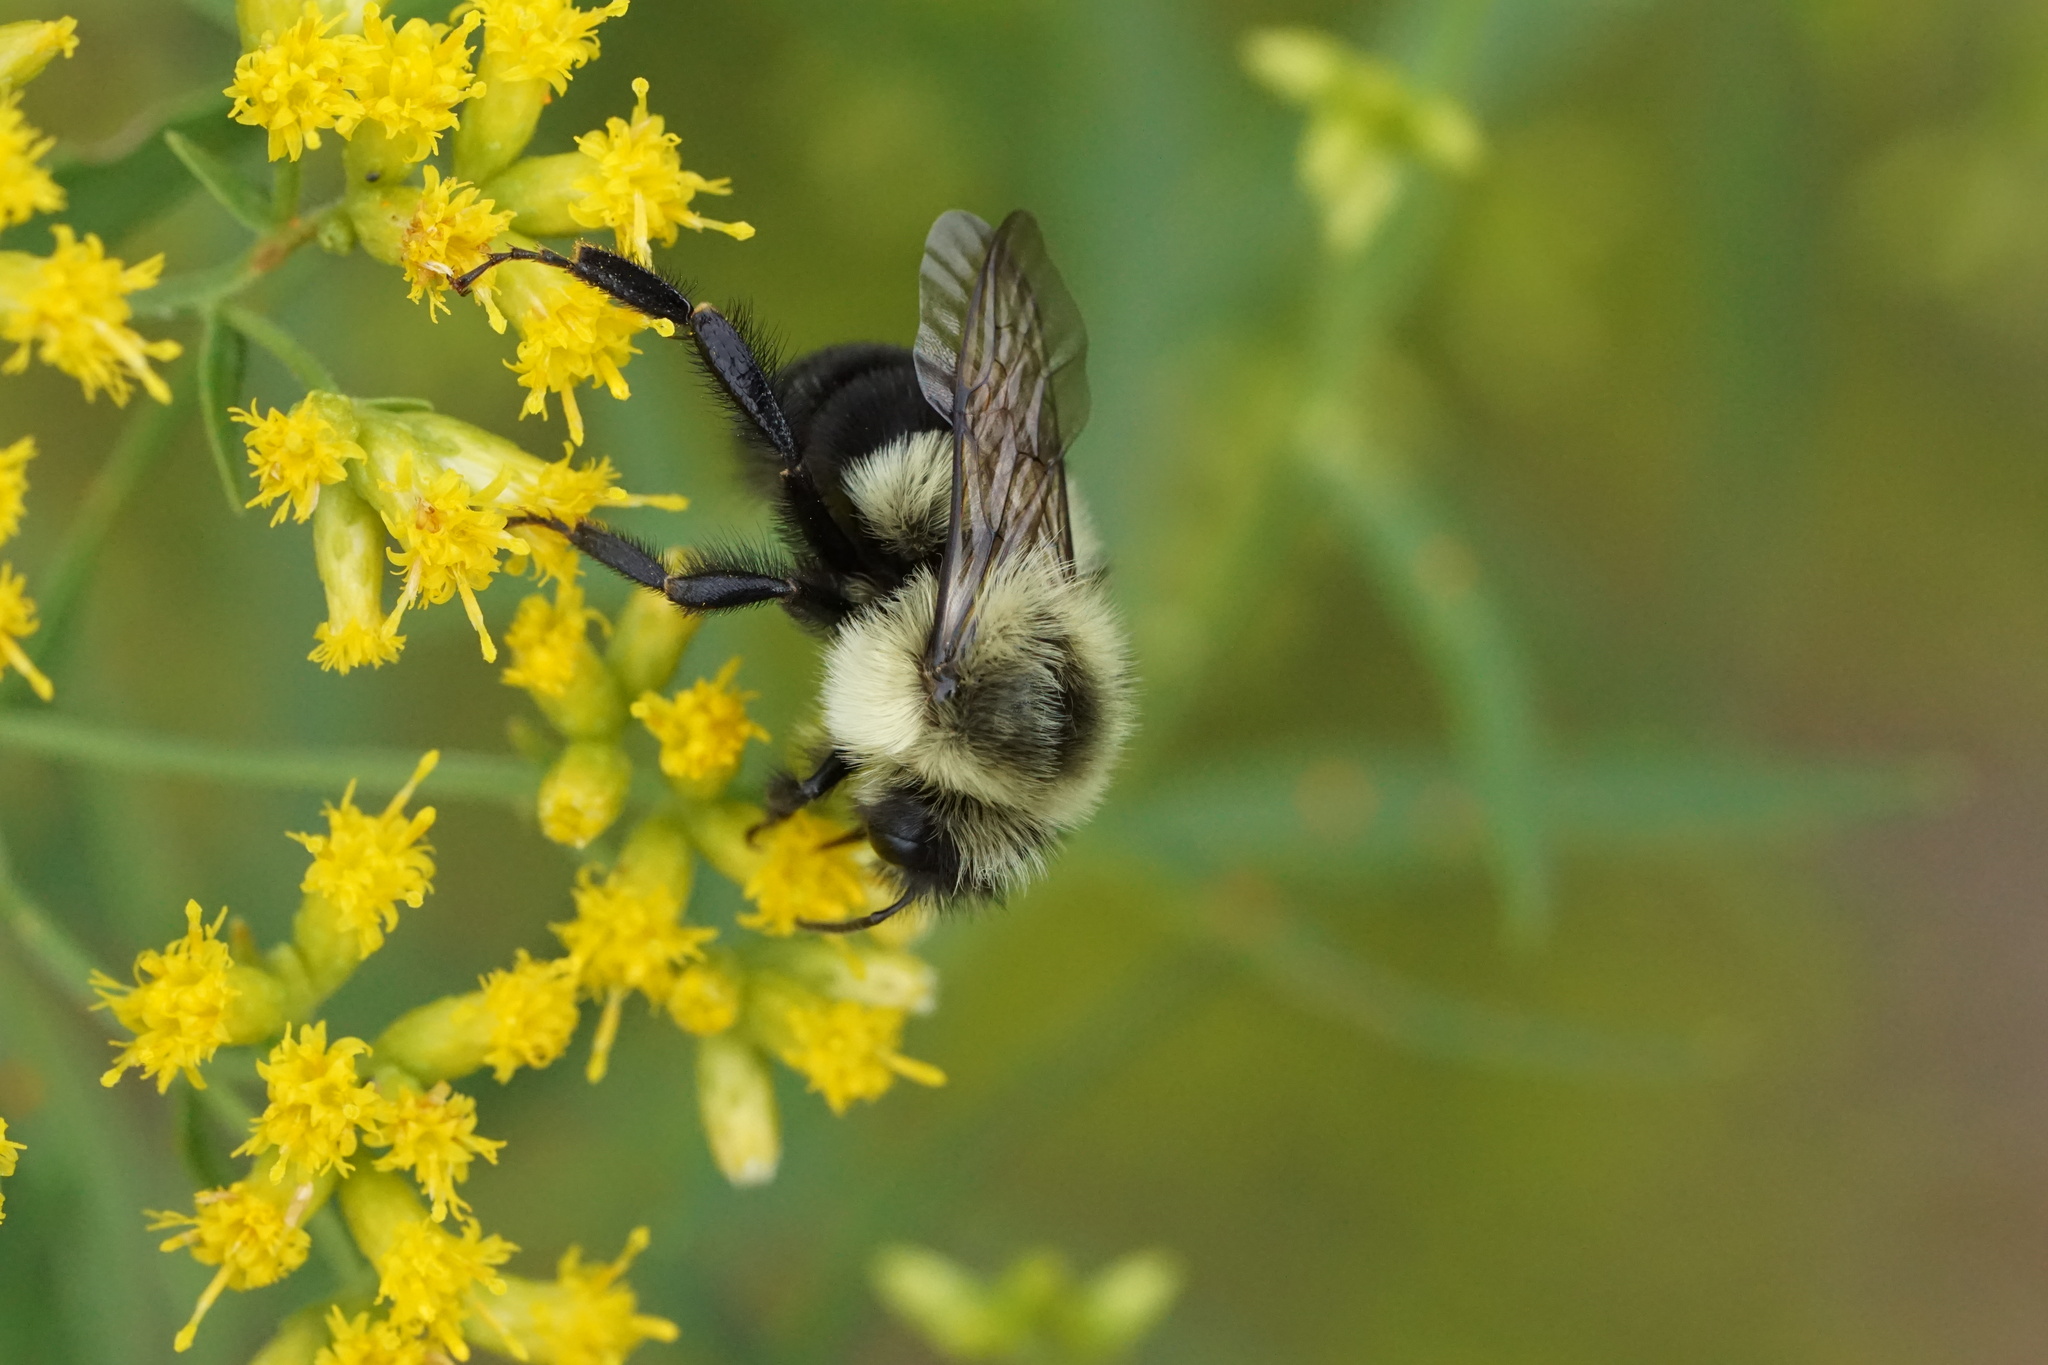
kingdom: Animalia
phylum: Arthropoda
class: Insecta
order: Hymenoptera
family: Apidae
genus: Bombus
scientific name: Bombus impatiens
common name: Common eastern bumble bee
